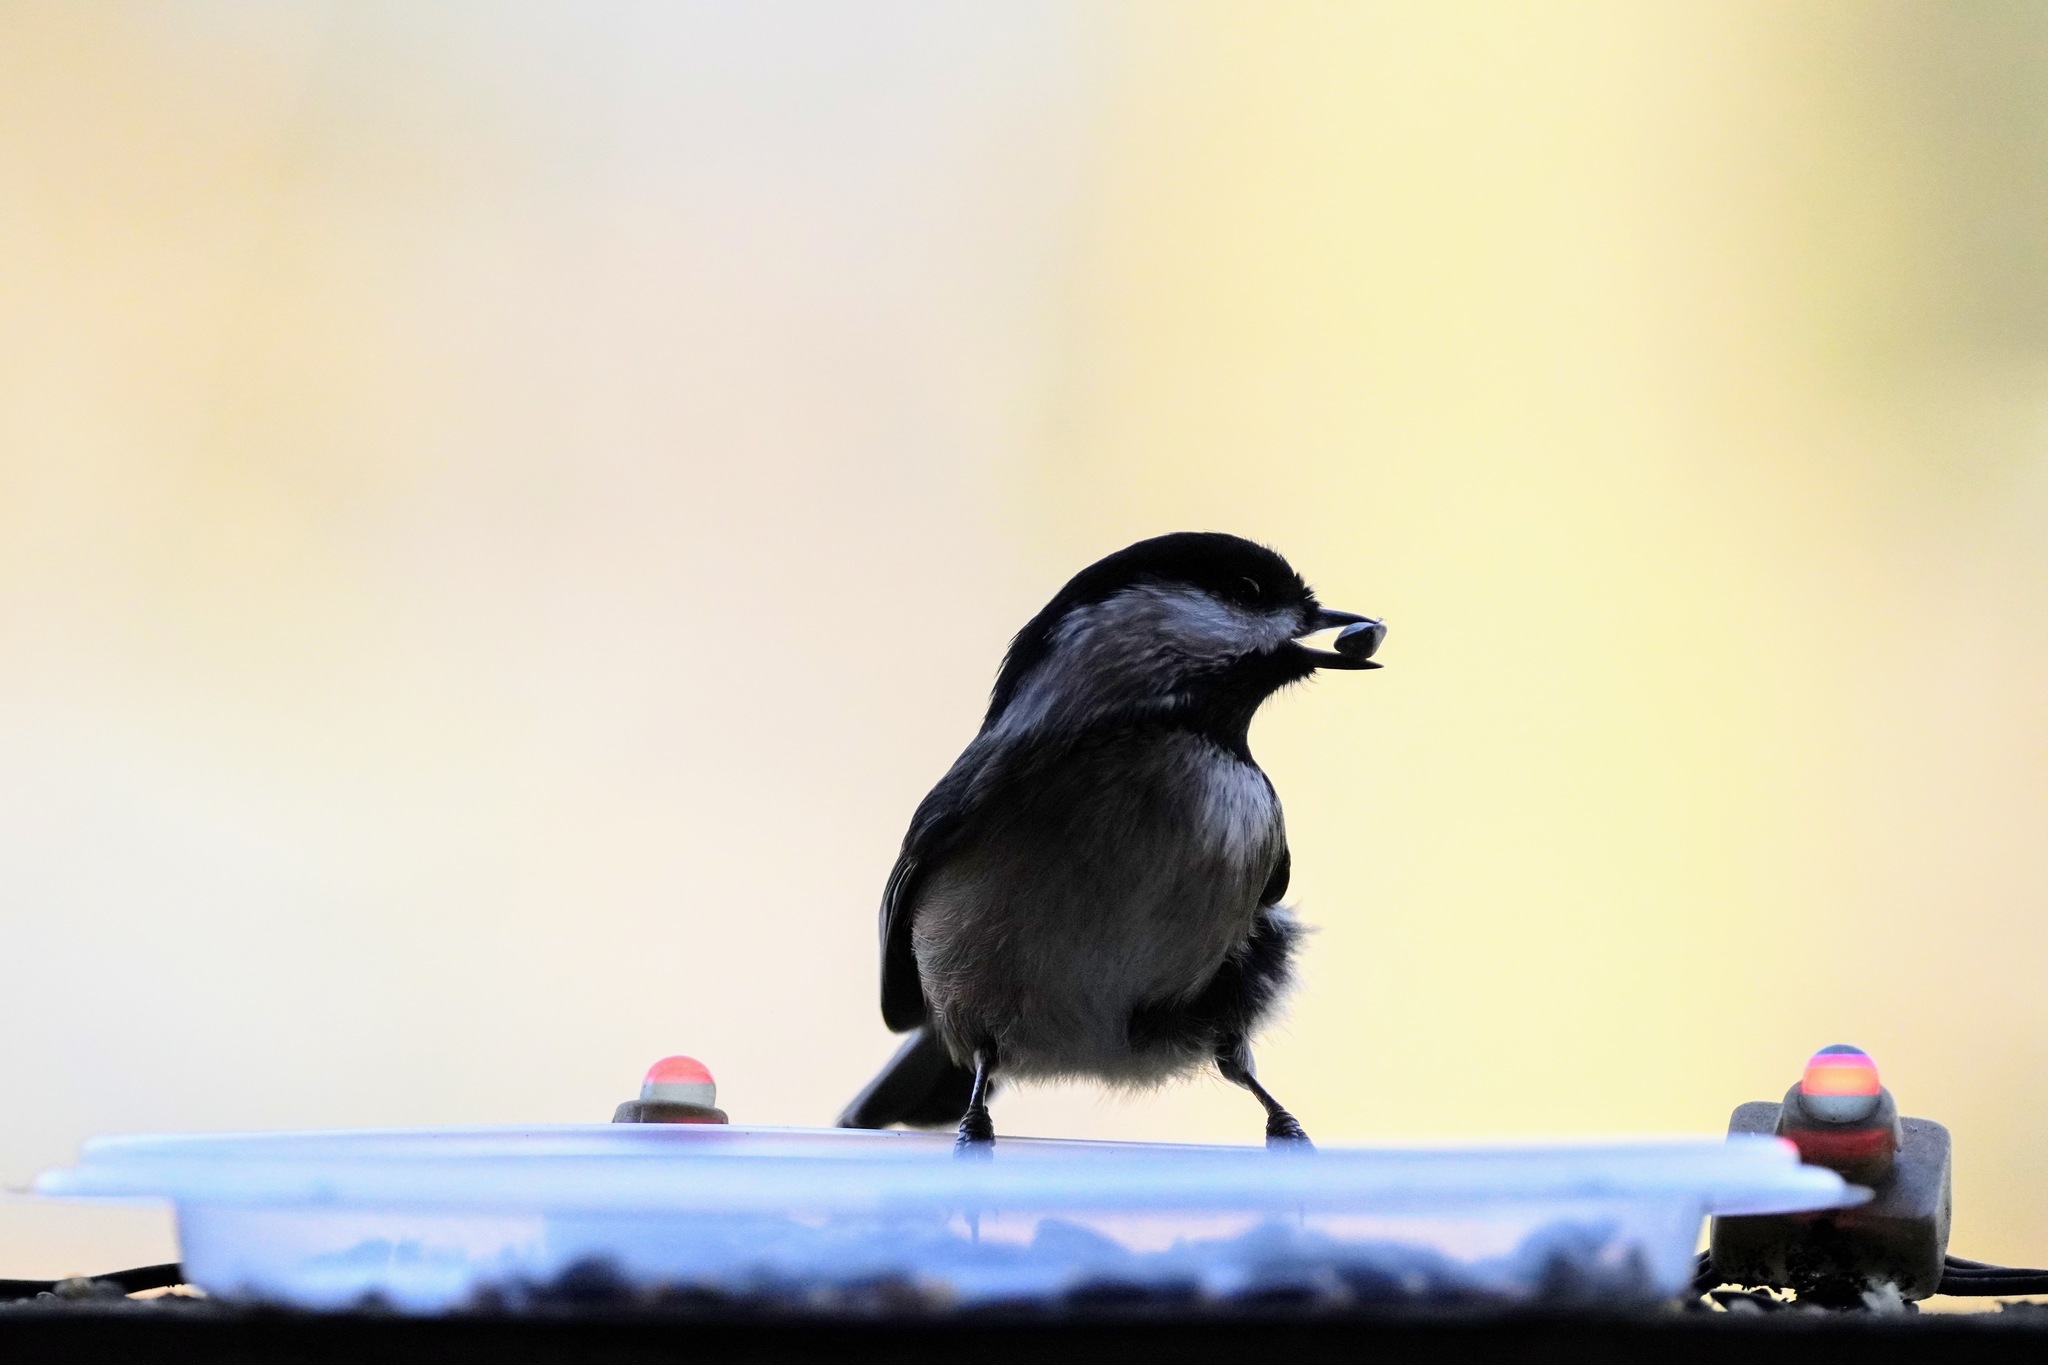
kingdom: Animalia
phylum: Chordata
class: Aves
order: Passeriformes
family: Paridae
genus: Poecile
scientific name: Poecile atricapillus
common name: Black-capped chickadee
